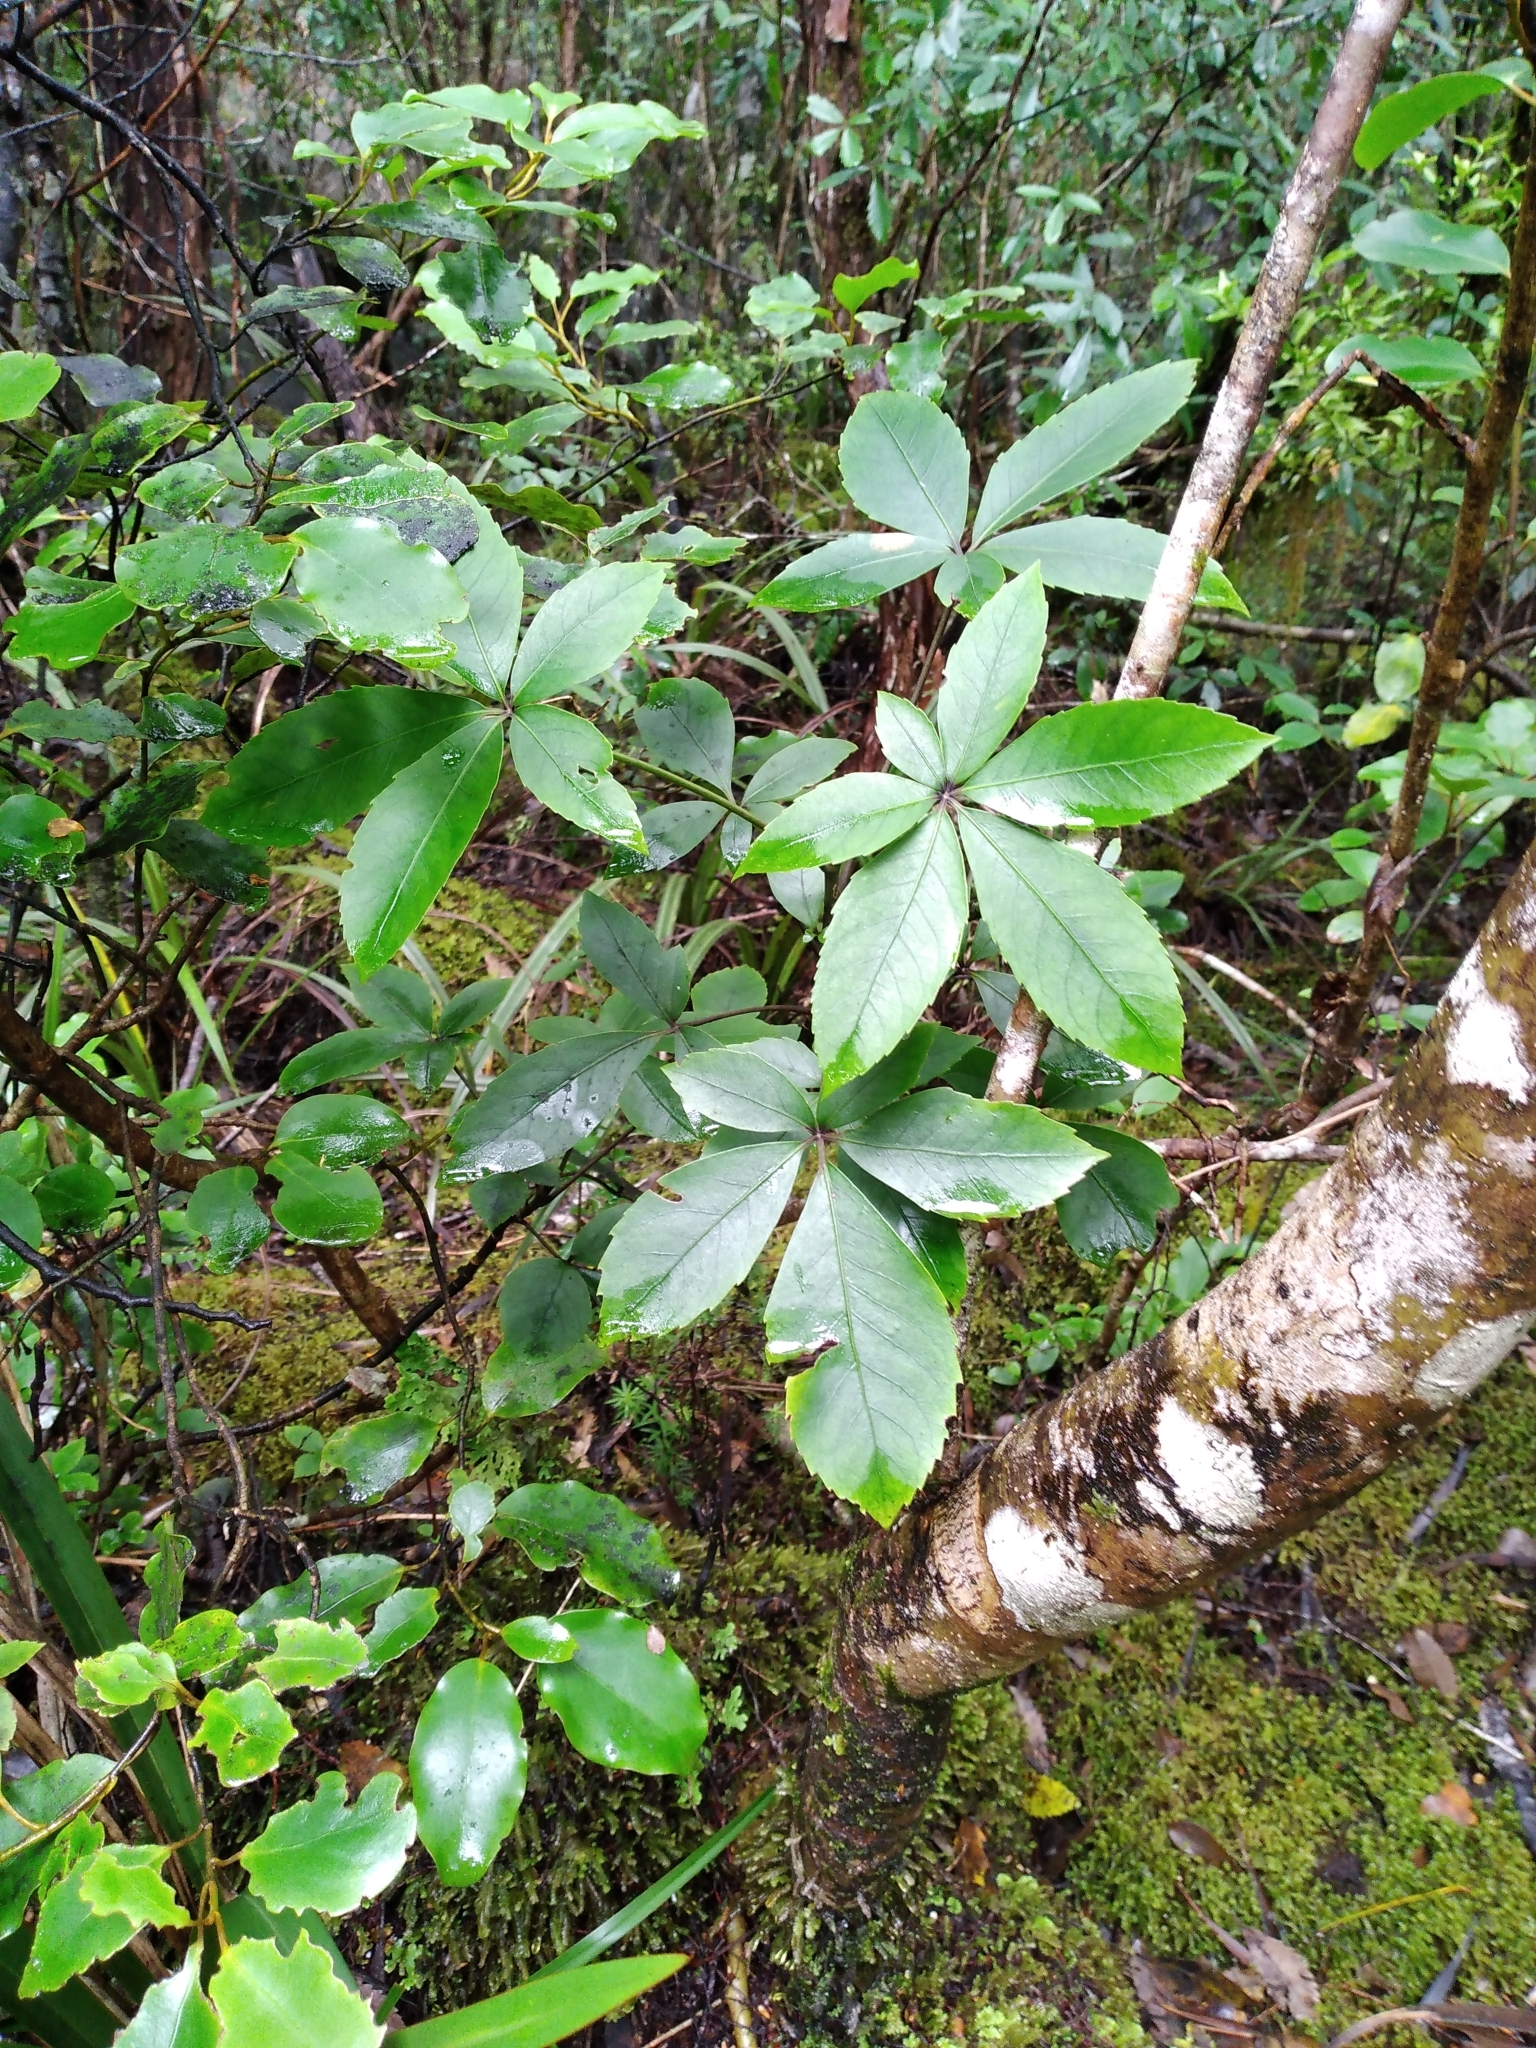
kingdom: Plantae
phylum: Tracheophyta
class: Magnoliopsida
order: Apiales
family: Araliaceae
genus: Neopanax
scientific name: Neopanax colensoi
